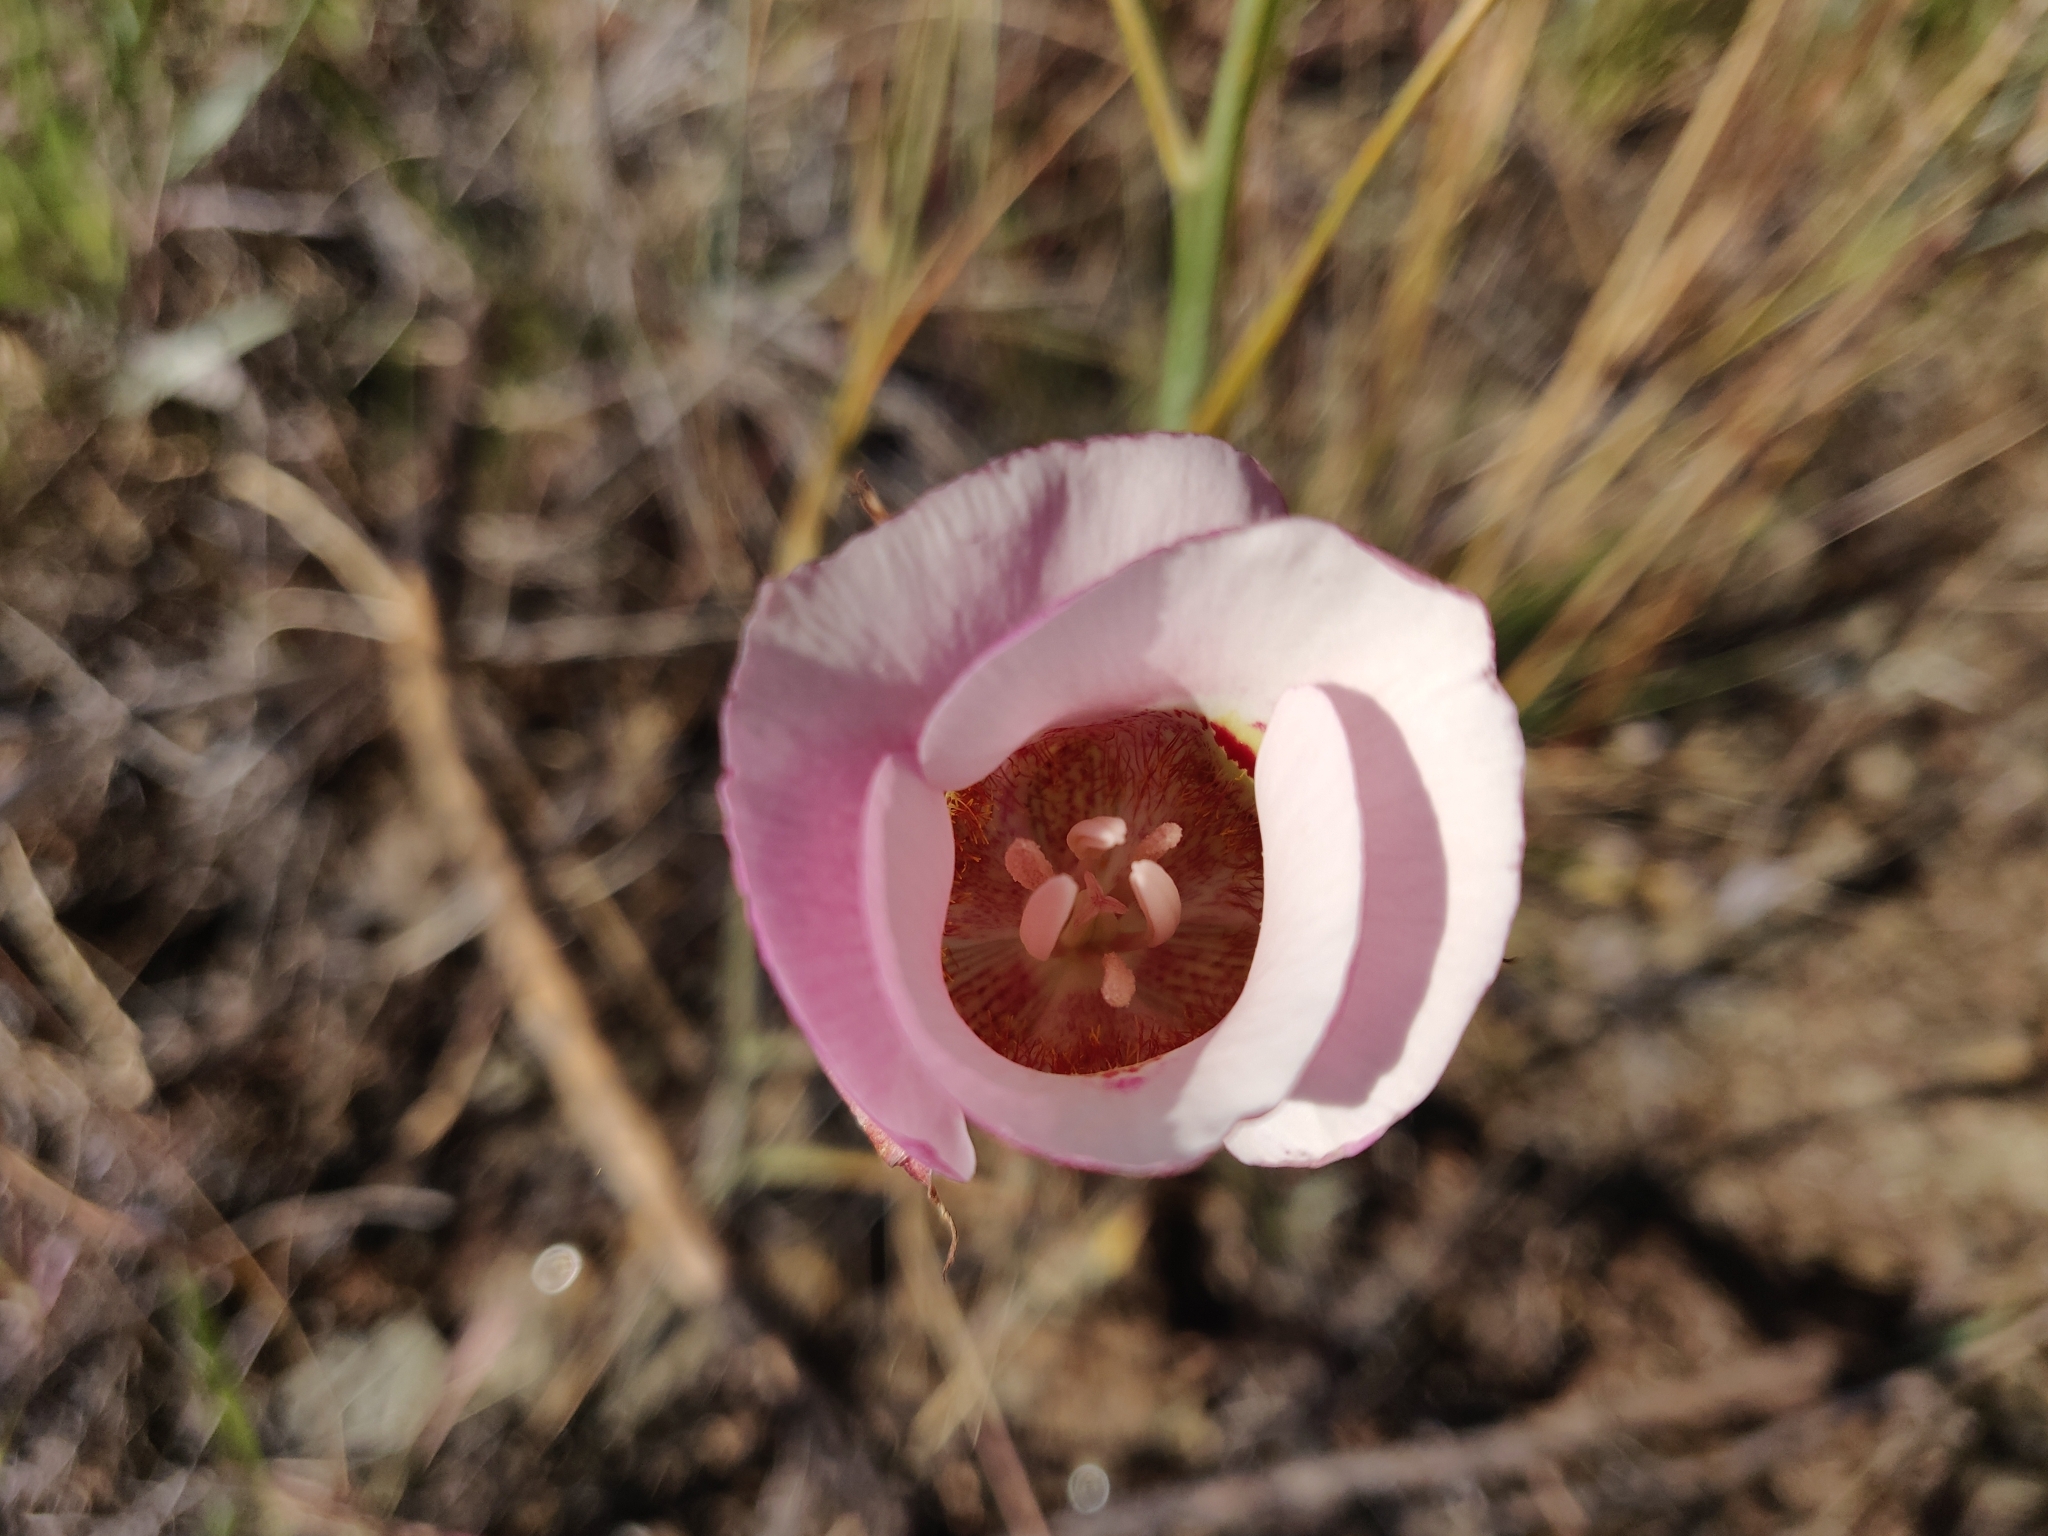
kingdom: Plantae
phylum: Tracheophyta
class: Liliopsida
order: Liliales
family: Liliaceae
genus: Calochortus
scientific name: Calochortus argillosus
